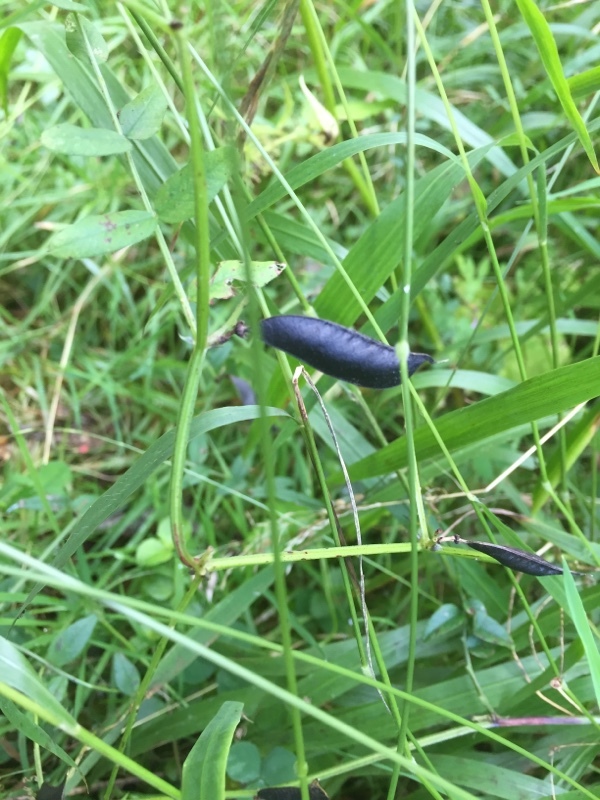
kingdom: Plantae
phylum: Tracheophyta
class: Magnoliopsida
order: Fabales
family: Fabaceae
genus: Vicia
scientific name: Vicia sepium
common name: Bush vetch
